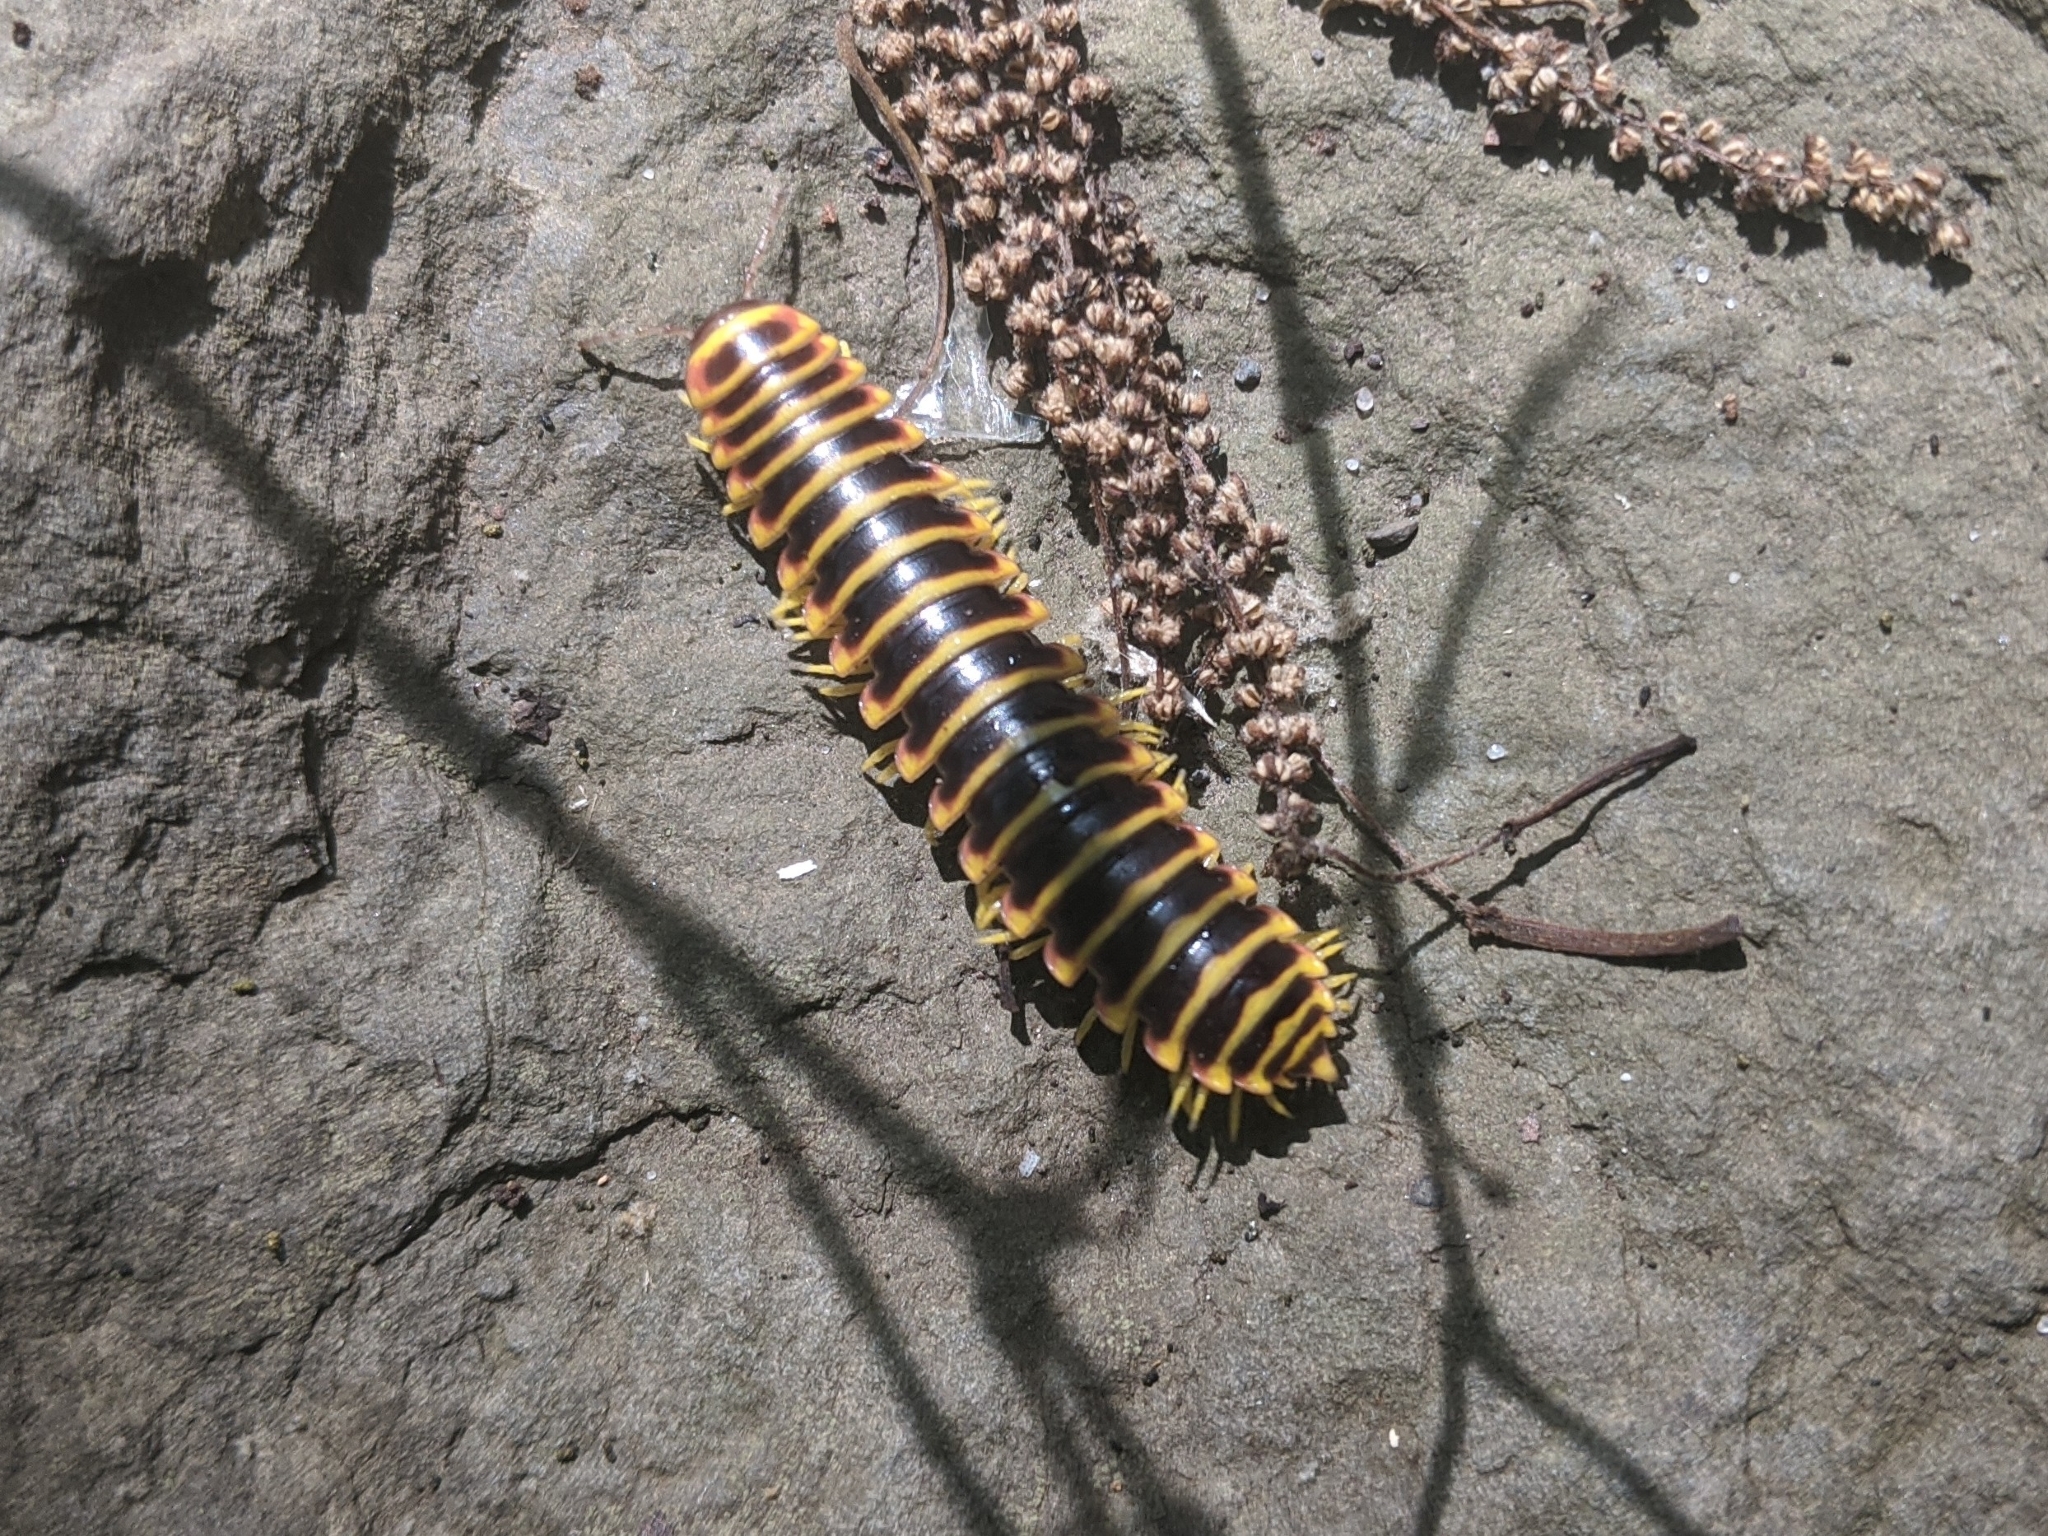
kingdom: Animalia
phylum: Arthropoda
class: Diplopoda
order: Polydesmida
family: Xystodesmidae
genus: Apheloria
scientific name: Apheloria virginiensis
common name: Black-and-gold flat millipede
